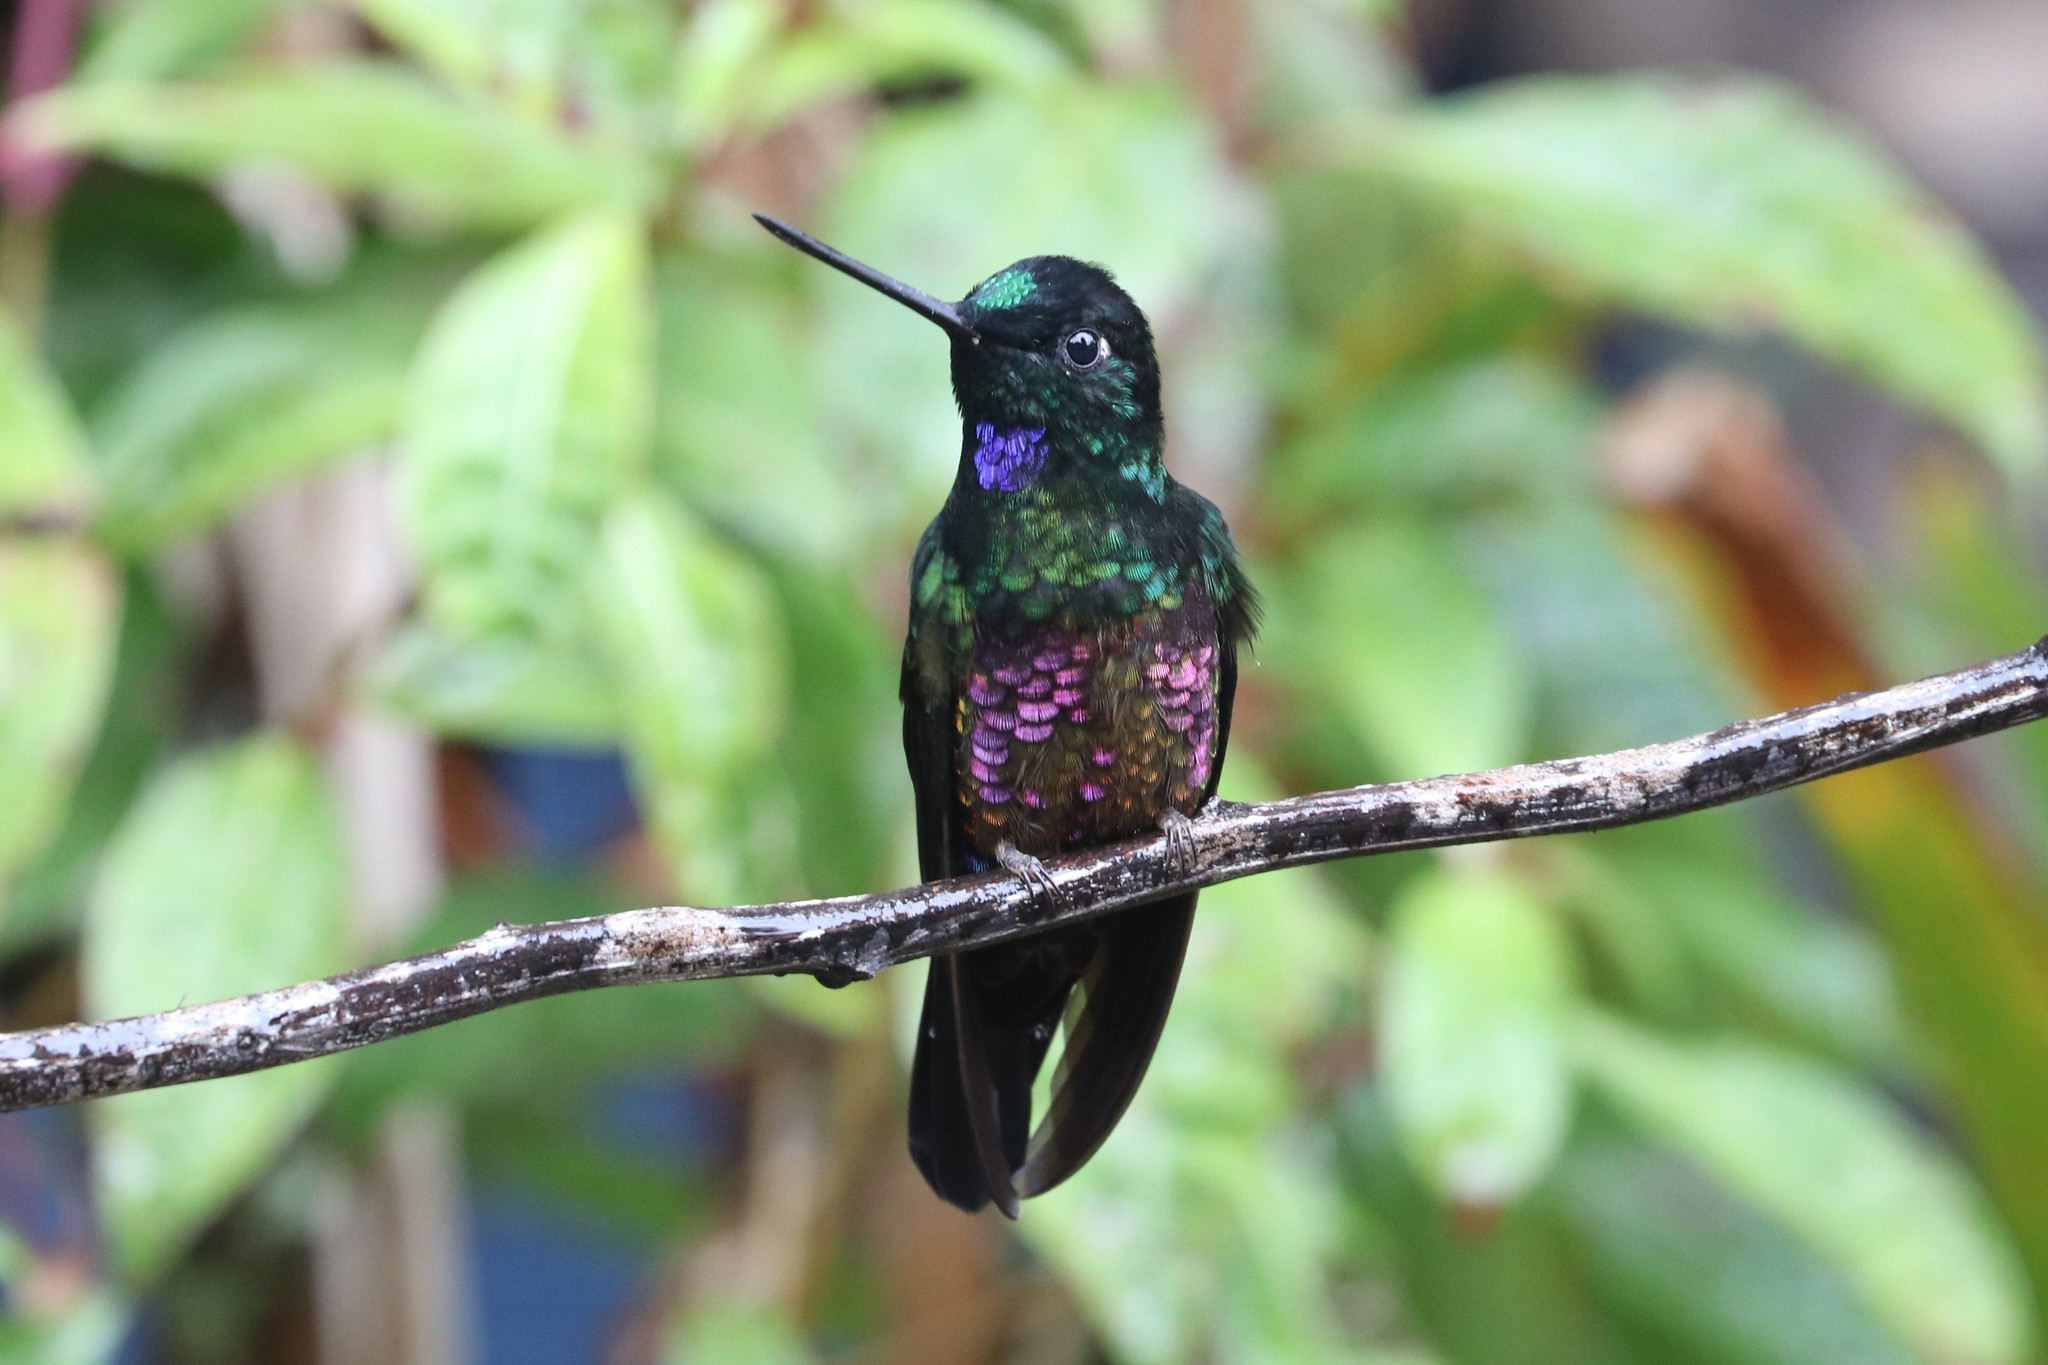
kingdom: Animalia
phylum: Chordata
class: Aves
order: Apodiformes
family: Trochilidae
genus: Coeligena
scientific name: Coeligena helianthea
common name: Blue-throated starfrontlet
